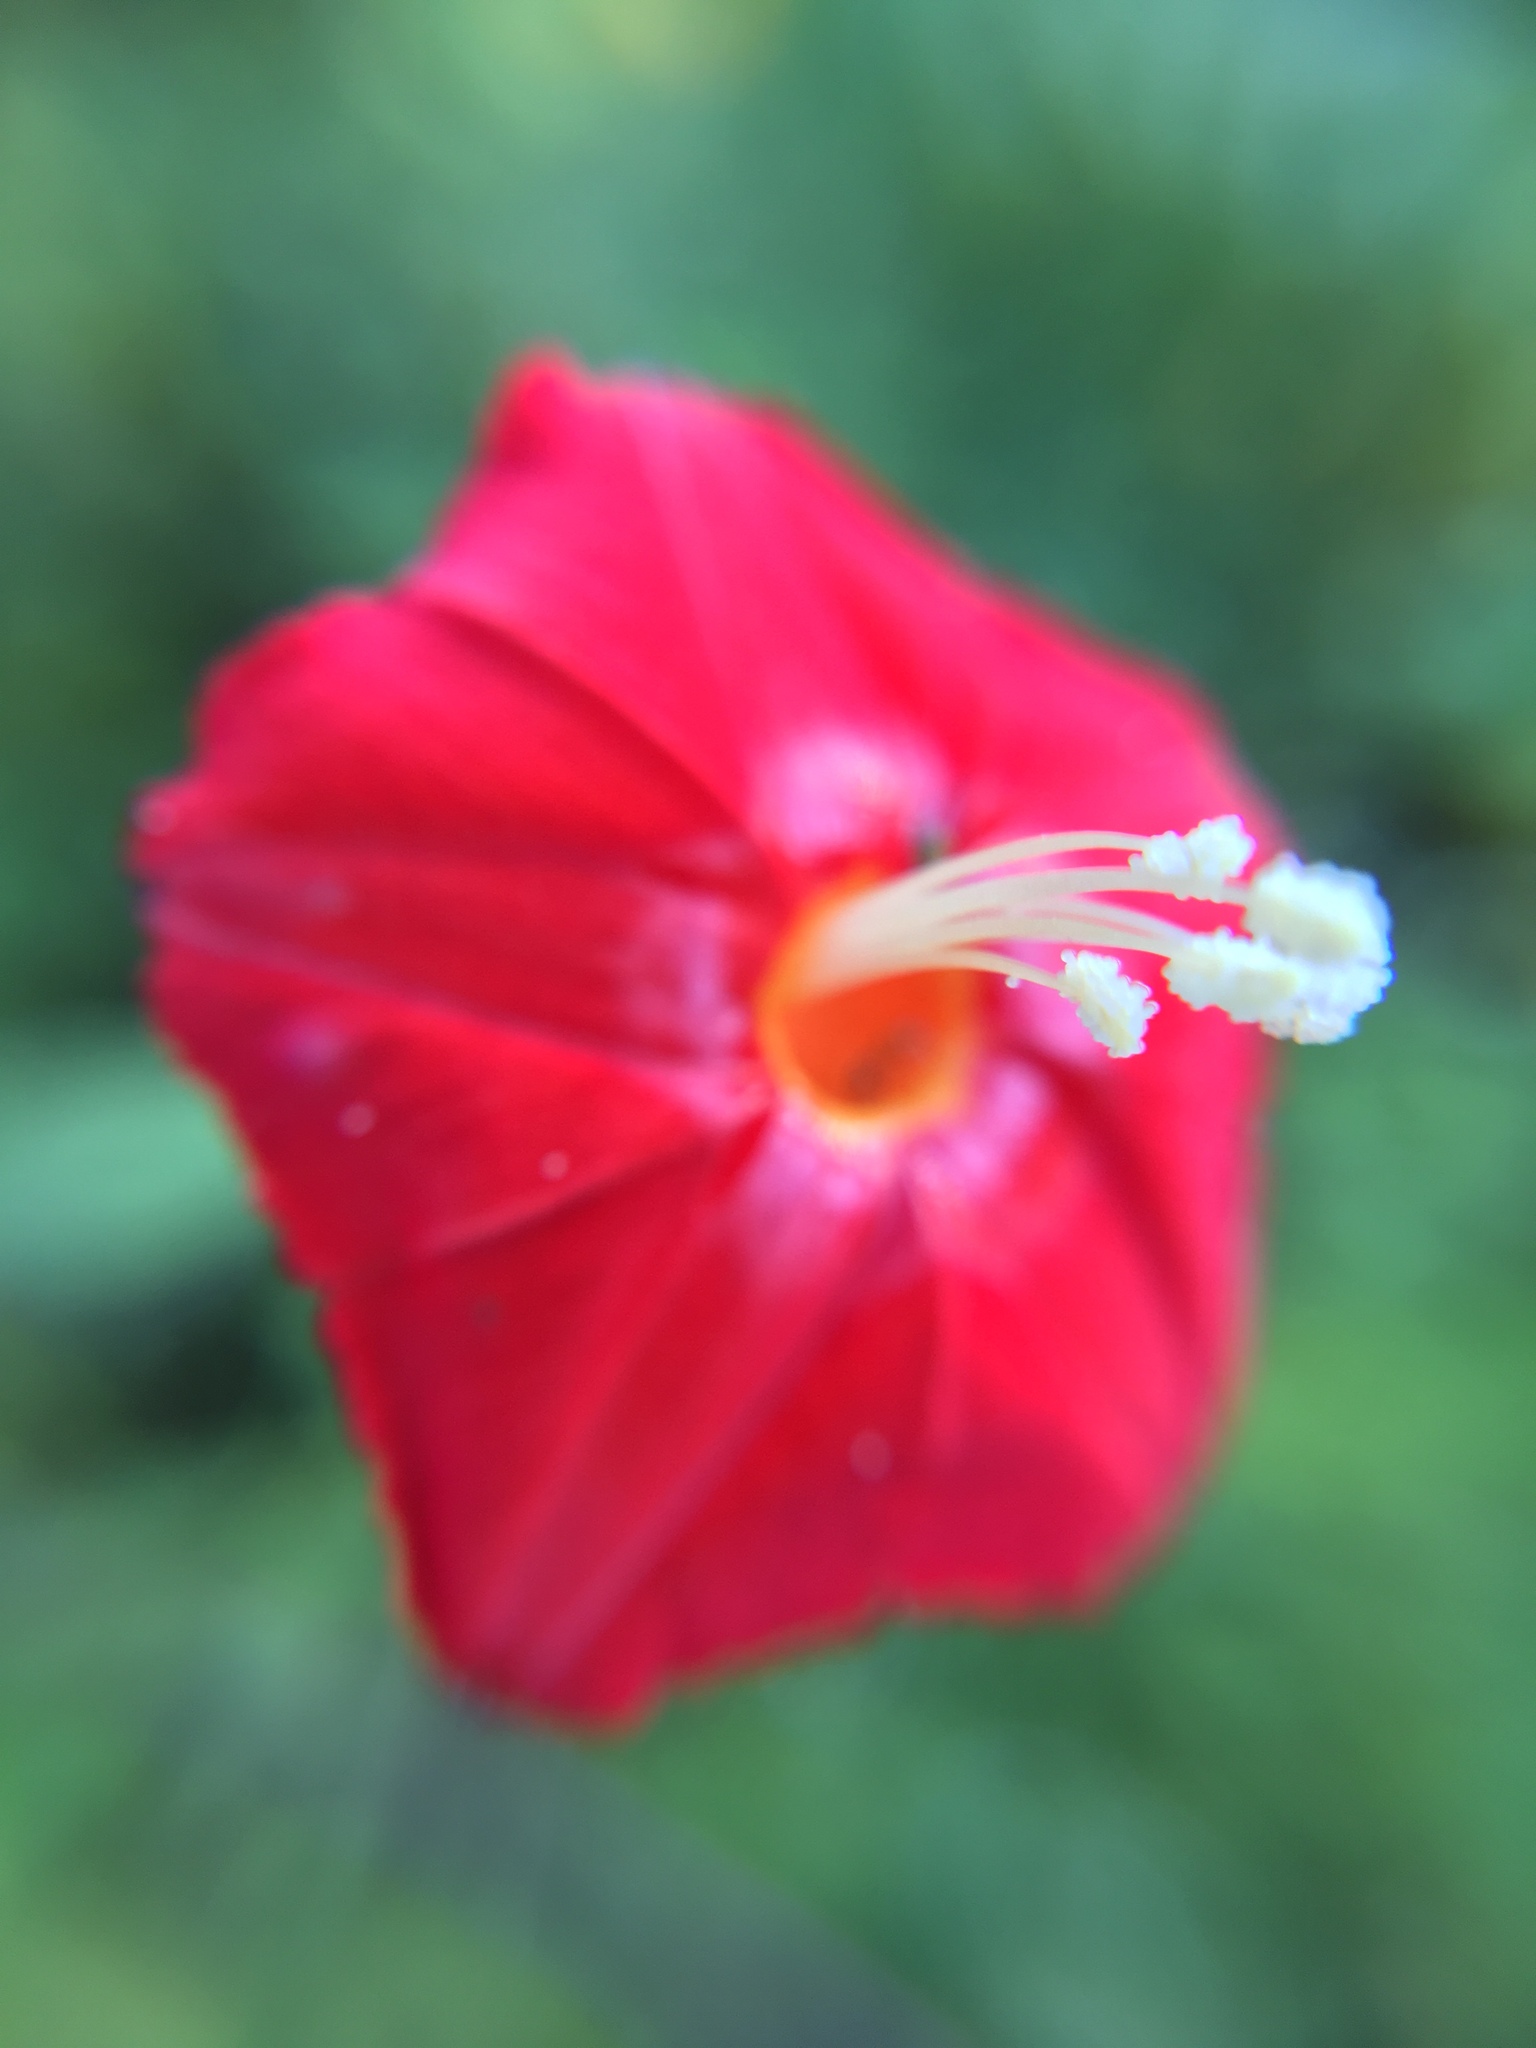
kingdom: Plantae
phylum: Tracheophyta
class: Magnoliopsida
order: Solanales
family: Convolvulaceae
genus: Ipomoea
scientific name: Ipomoea hederifolia
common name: Ivy-leaf morning-glory
